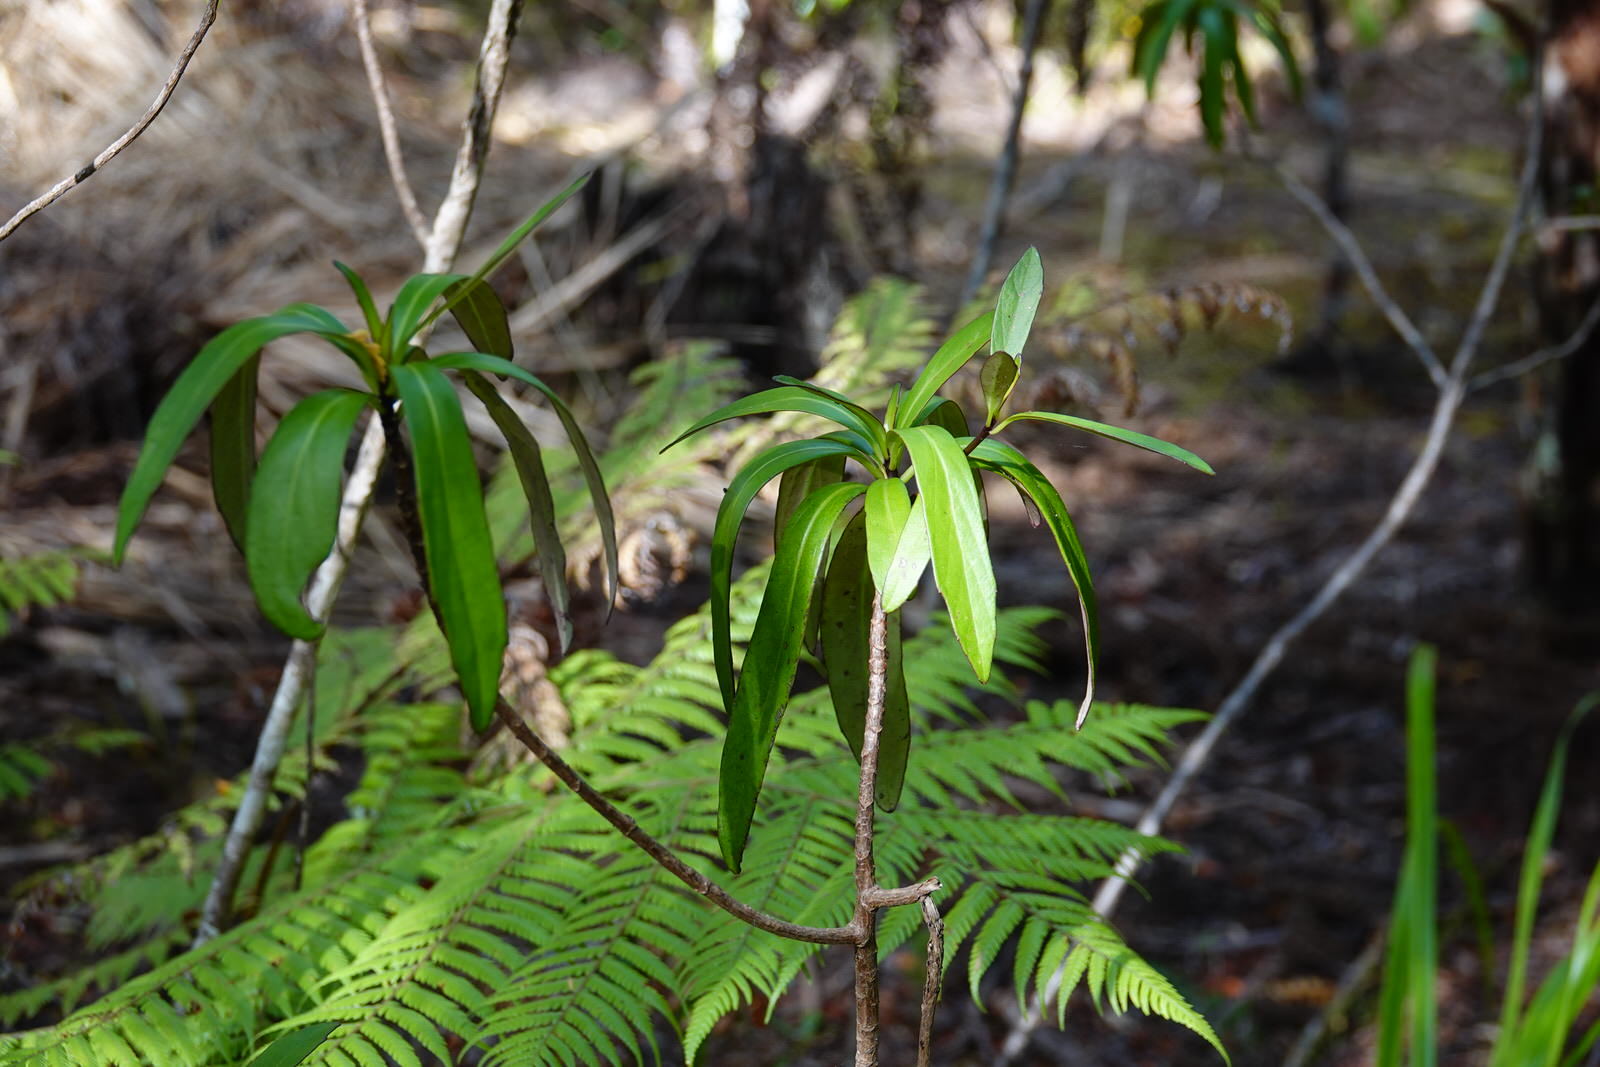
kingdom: Plantae
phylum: Tracheophyta
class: Magnoliopsida
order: Asterales
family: Asteraceae
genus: Brachyglottis
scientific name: Brachyglottis kirkii
